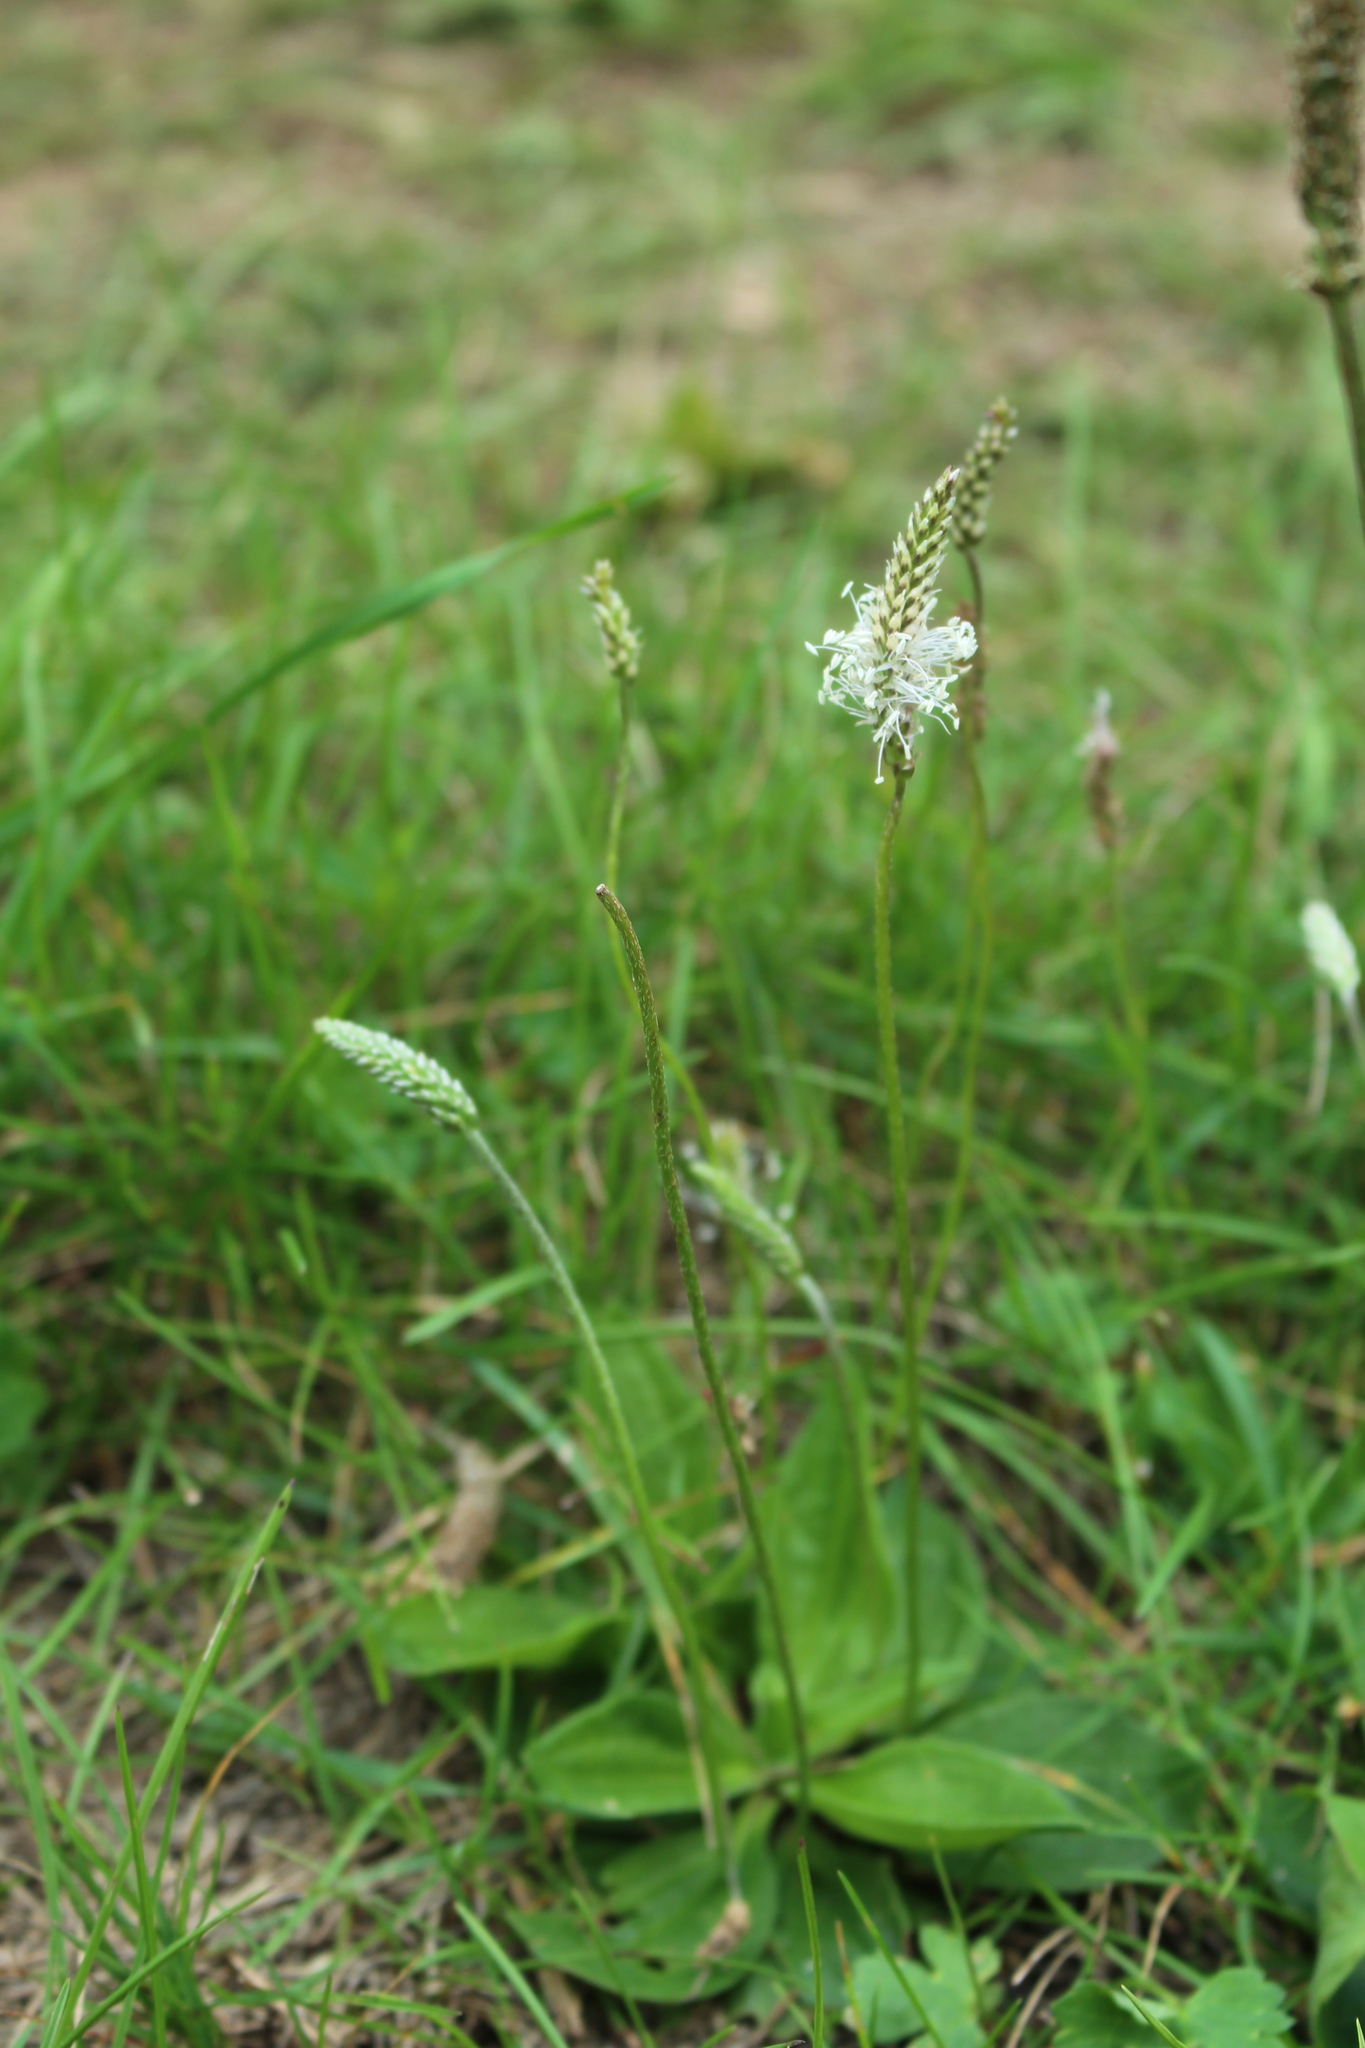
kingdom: Plantae
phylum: Tracheophyta
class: Magnoliopsida
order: Lamiales
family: Plantaginaceae
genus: Plantago
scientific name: Plantago media
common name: Hoary plantain
